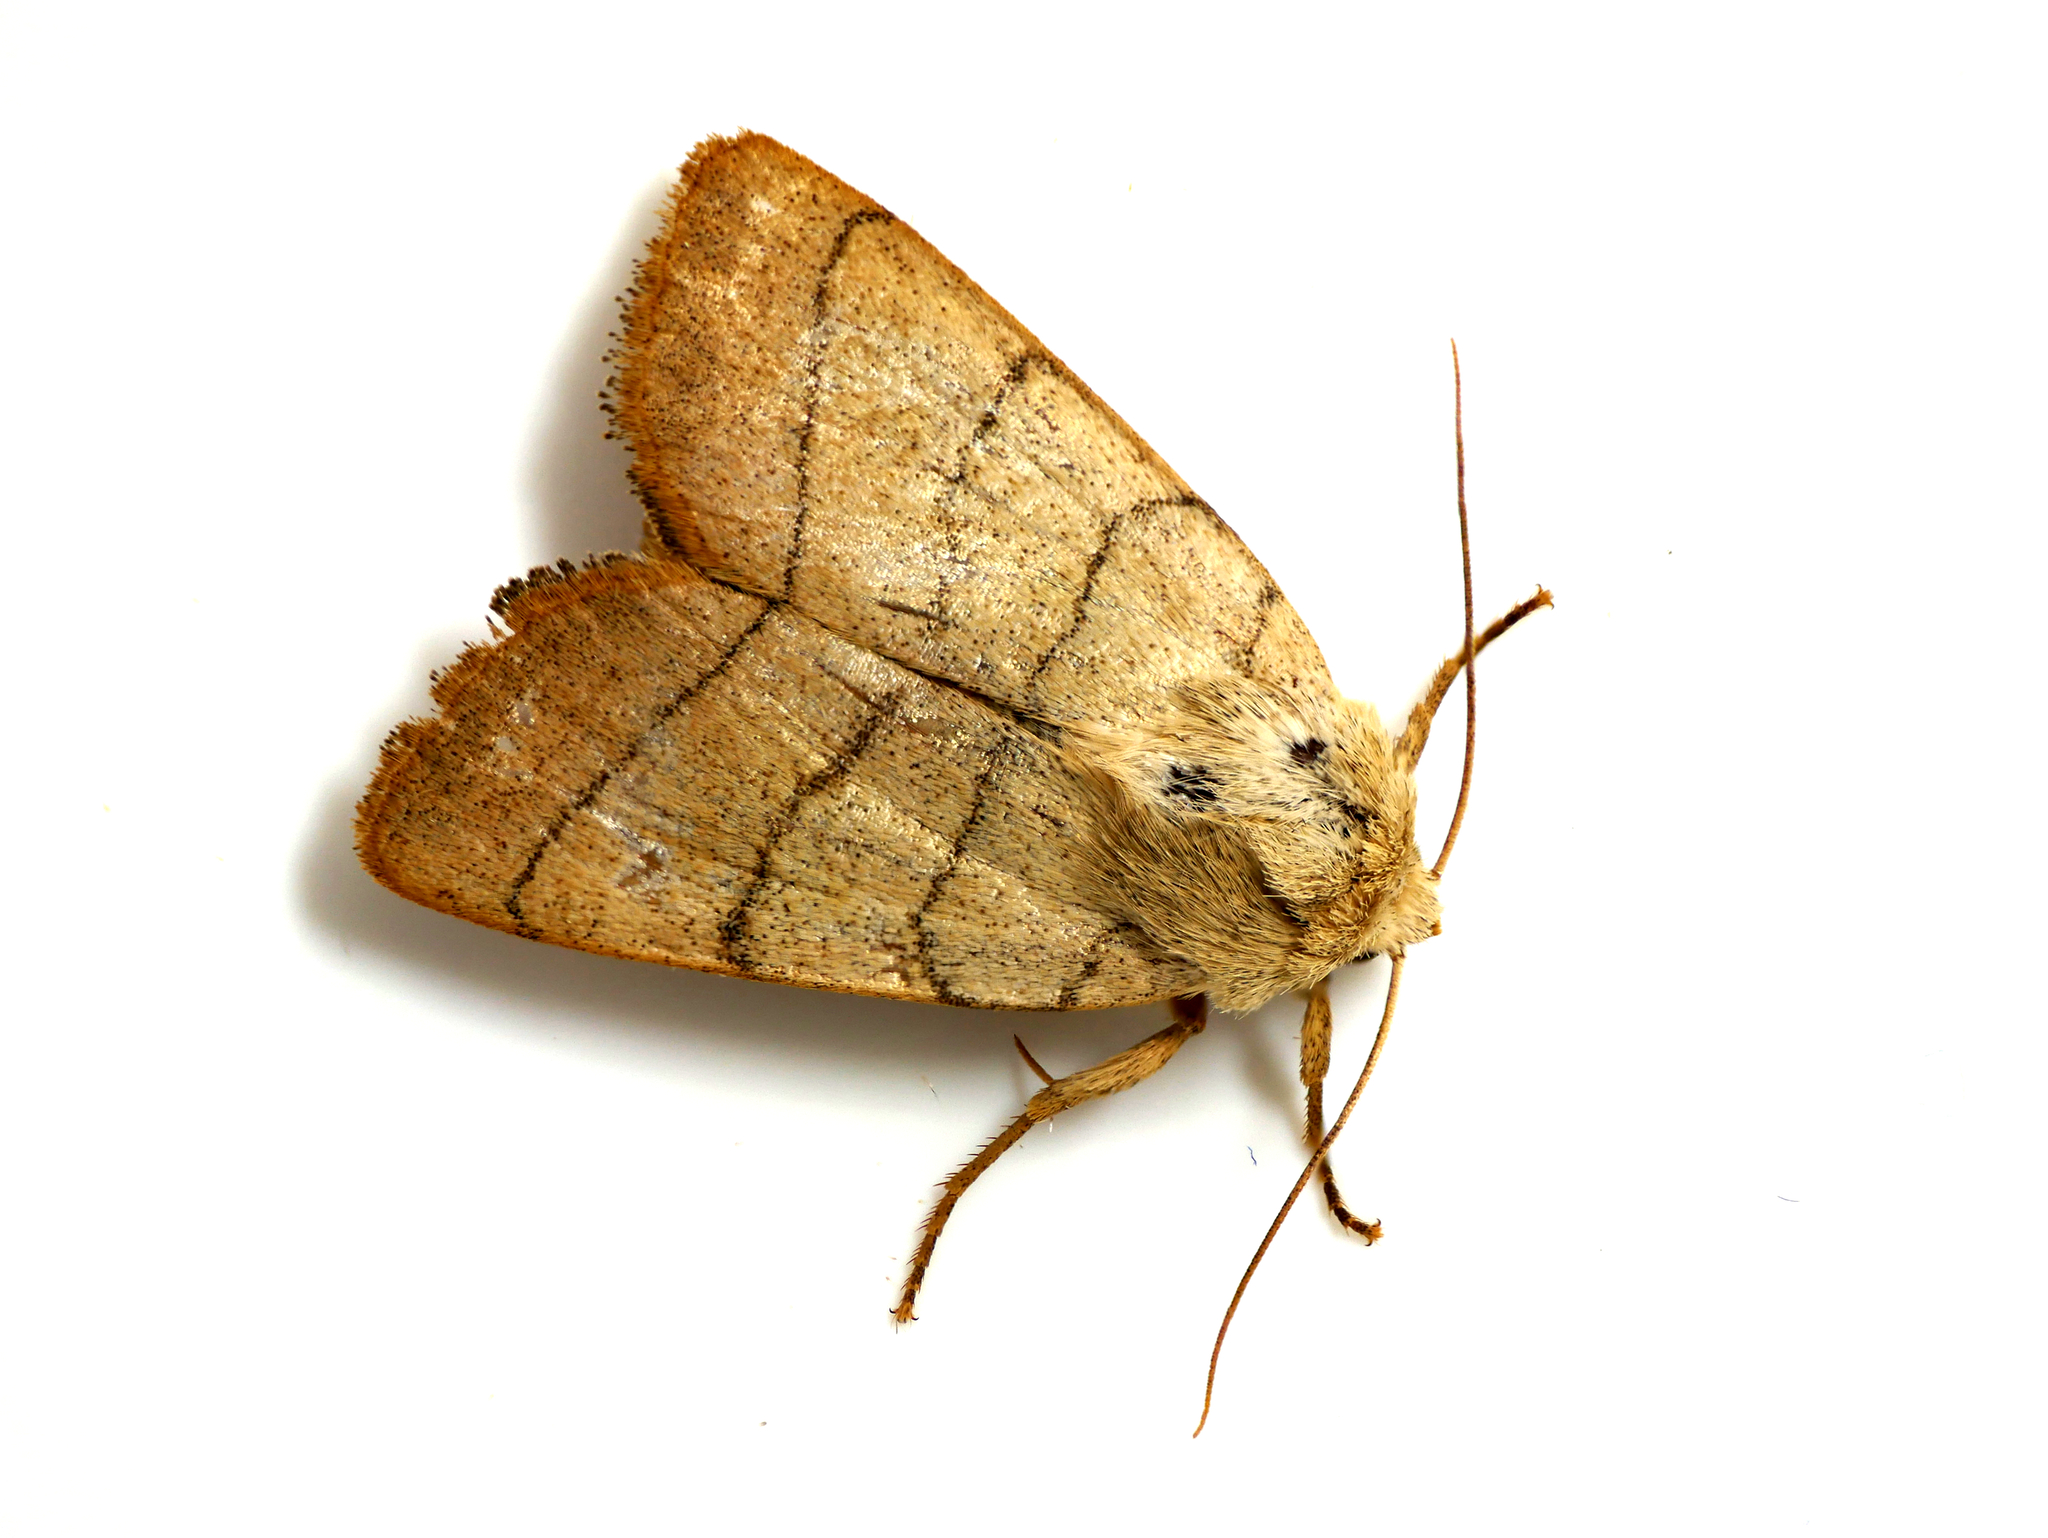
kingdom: Animalia
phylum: Arthropoda
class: Insecta
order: Lepidoptera
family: Noctuidae
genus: Charanyca
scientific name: Charanyca trigrammica
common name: Treble lines
